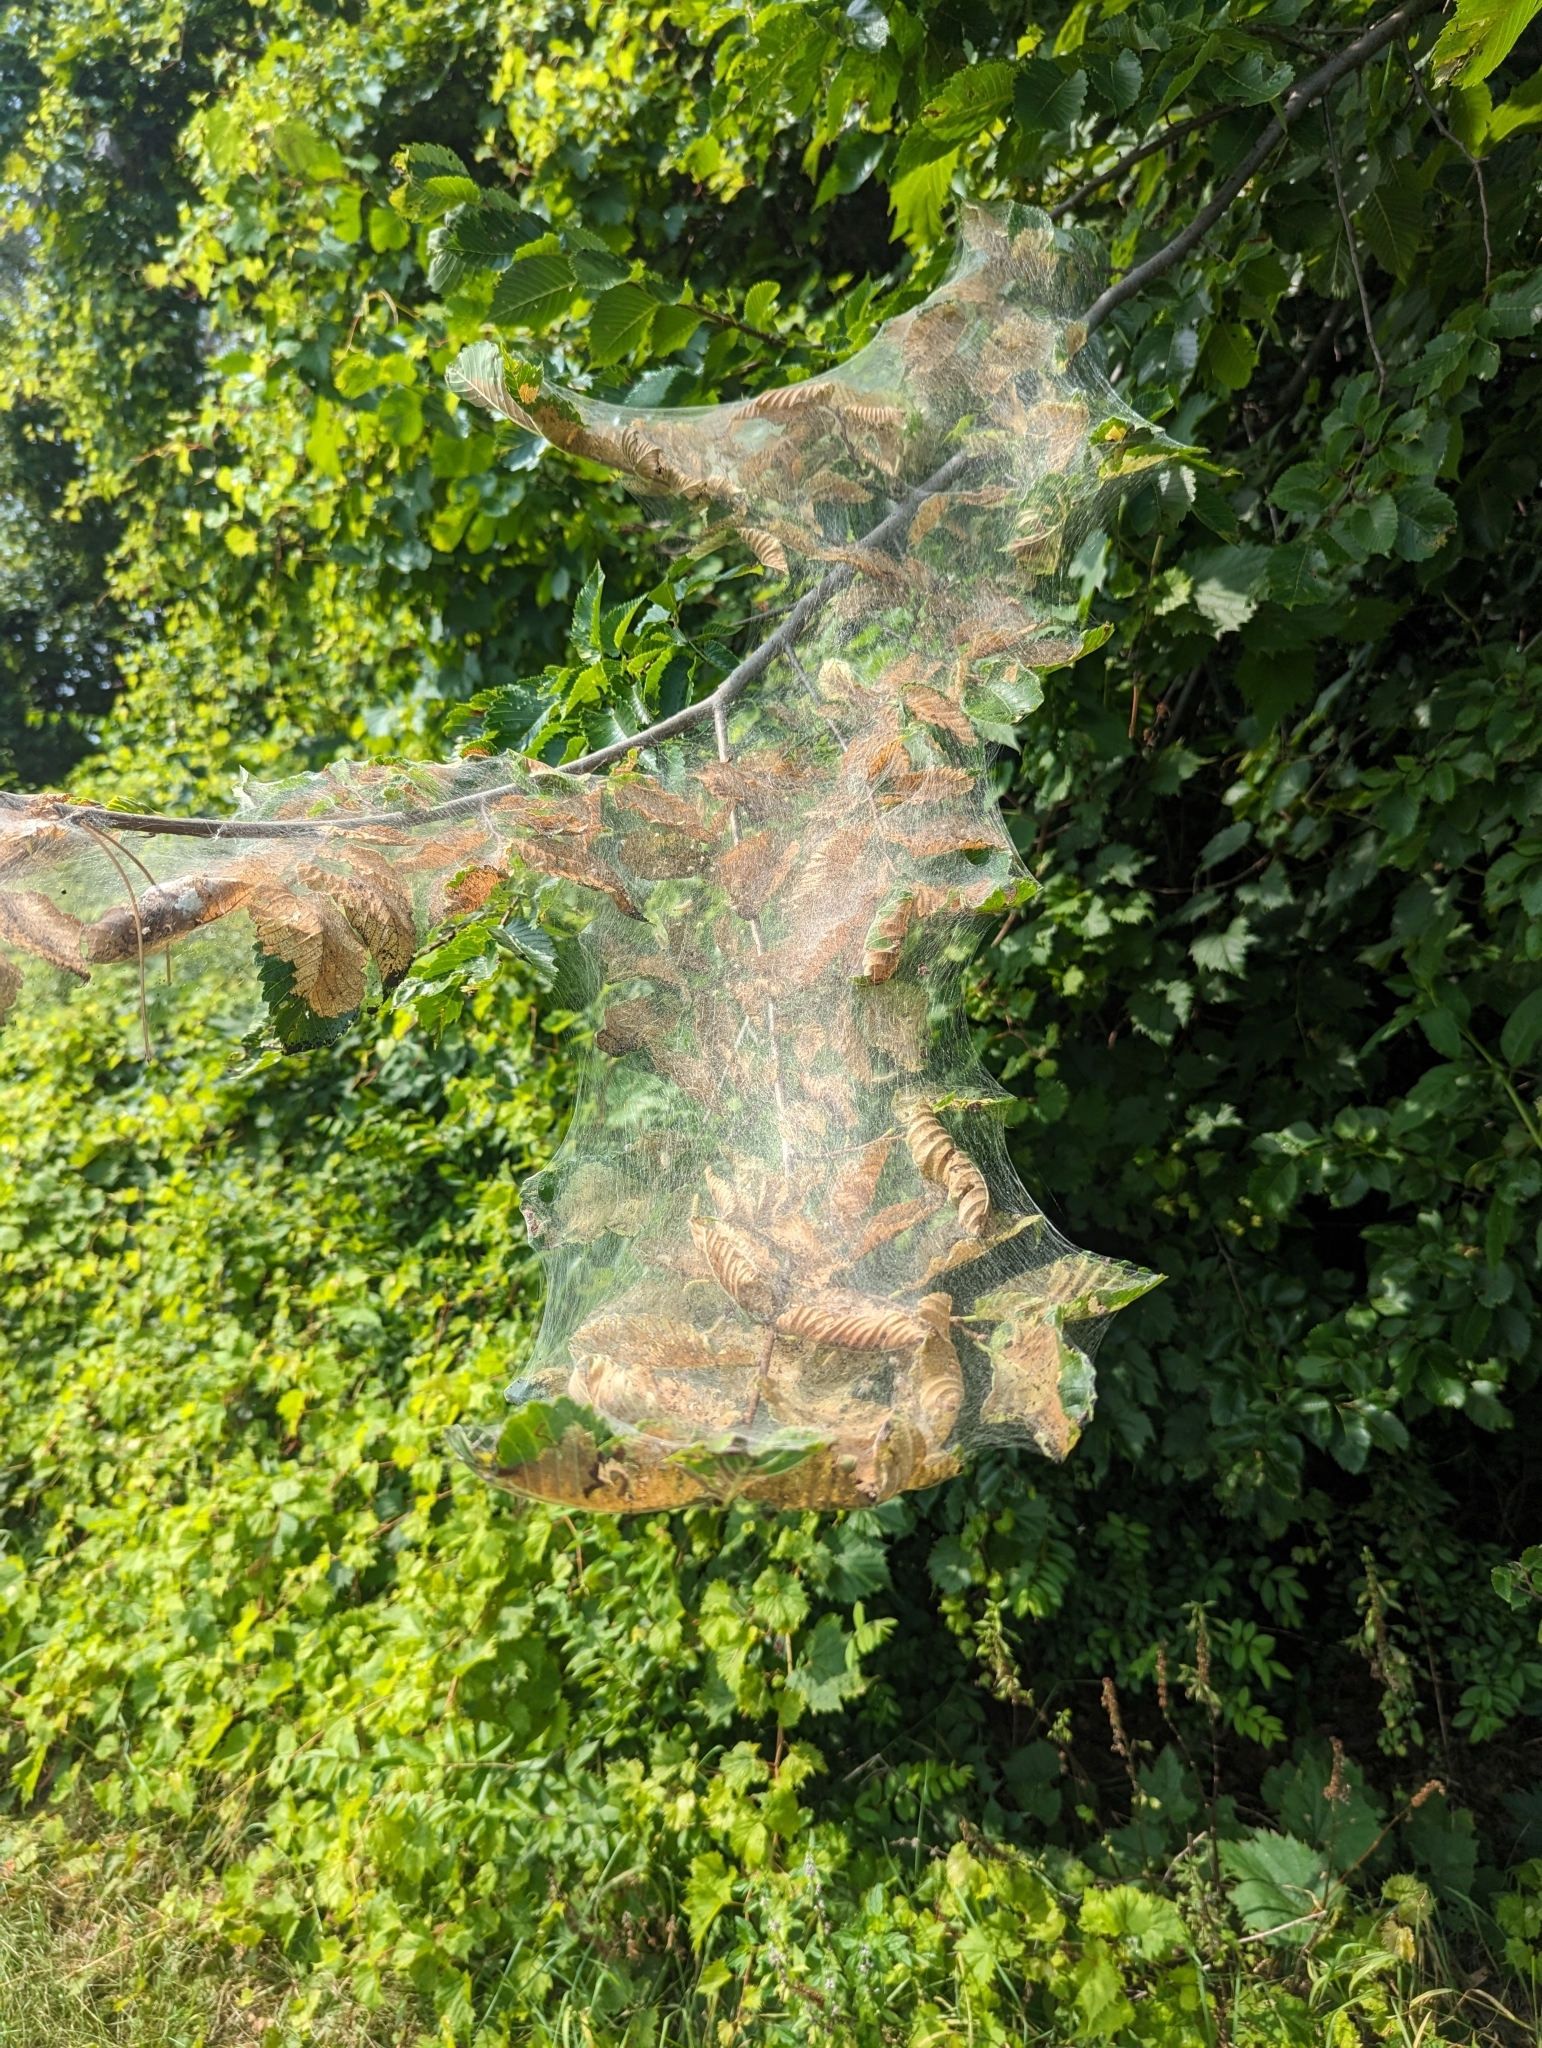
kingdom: Animalia
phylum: Arthropoda
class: Insecta
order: Lepidoptera
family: Erebidae
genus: Hyphantria
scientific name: Hyphantria cunea
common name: American white moth
